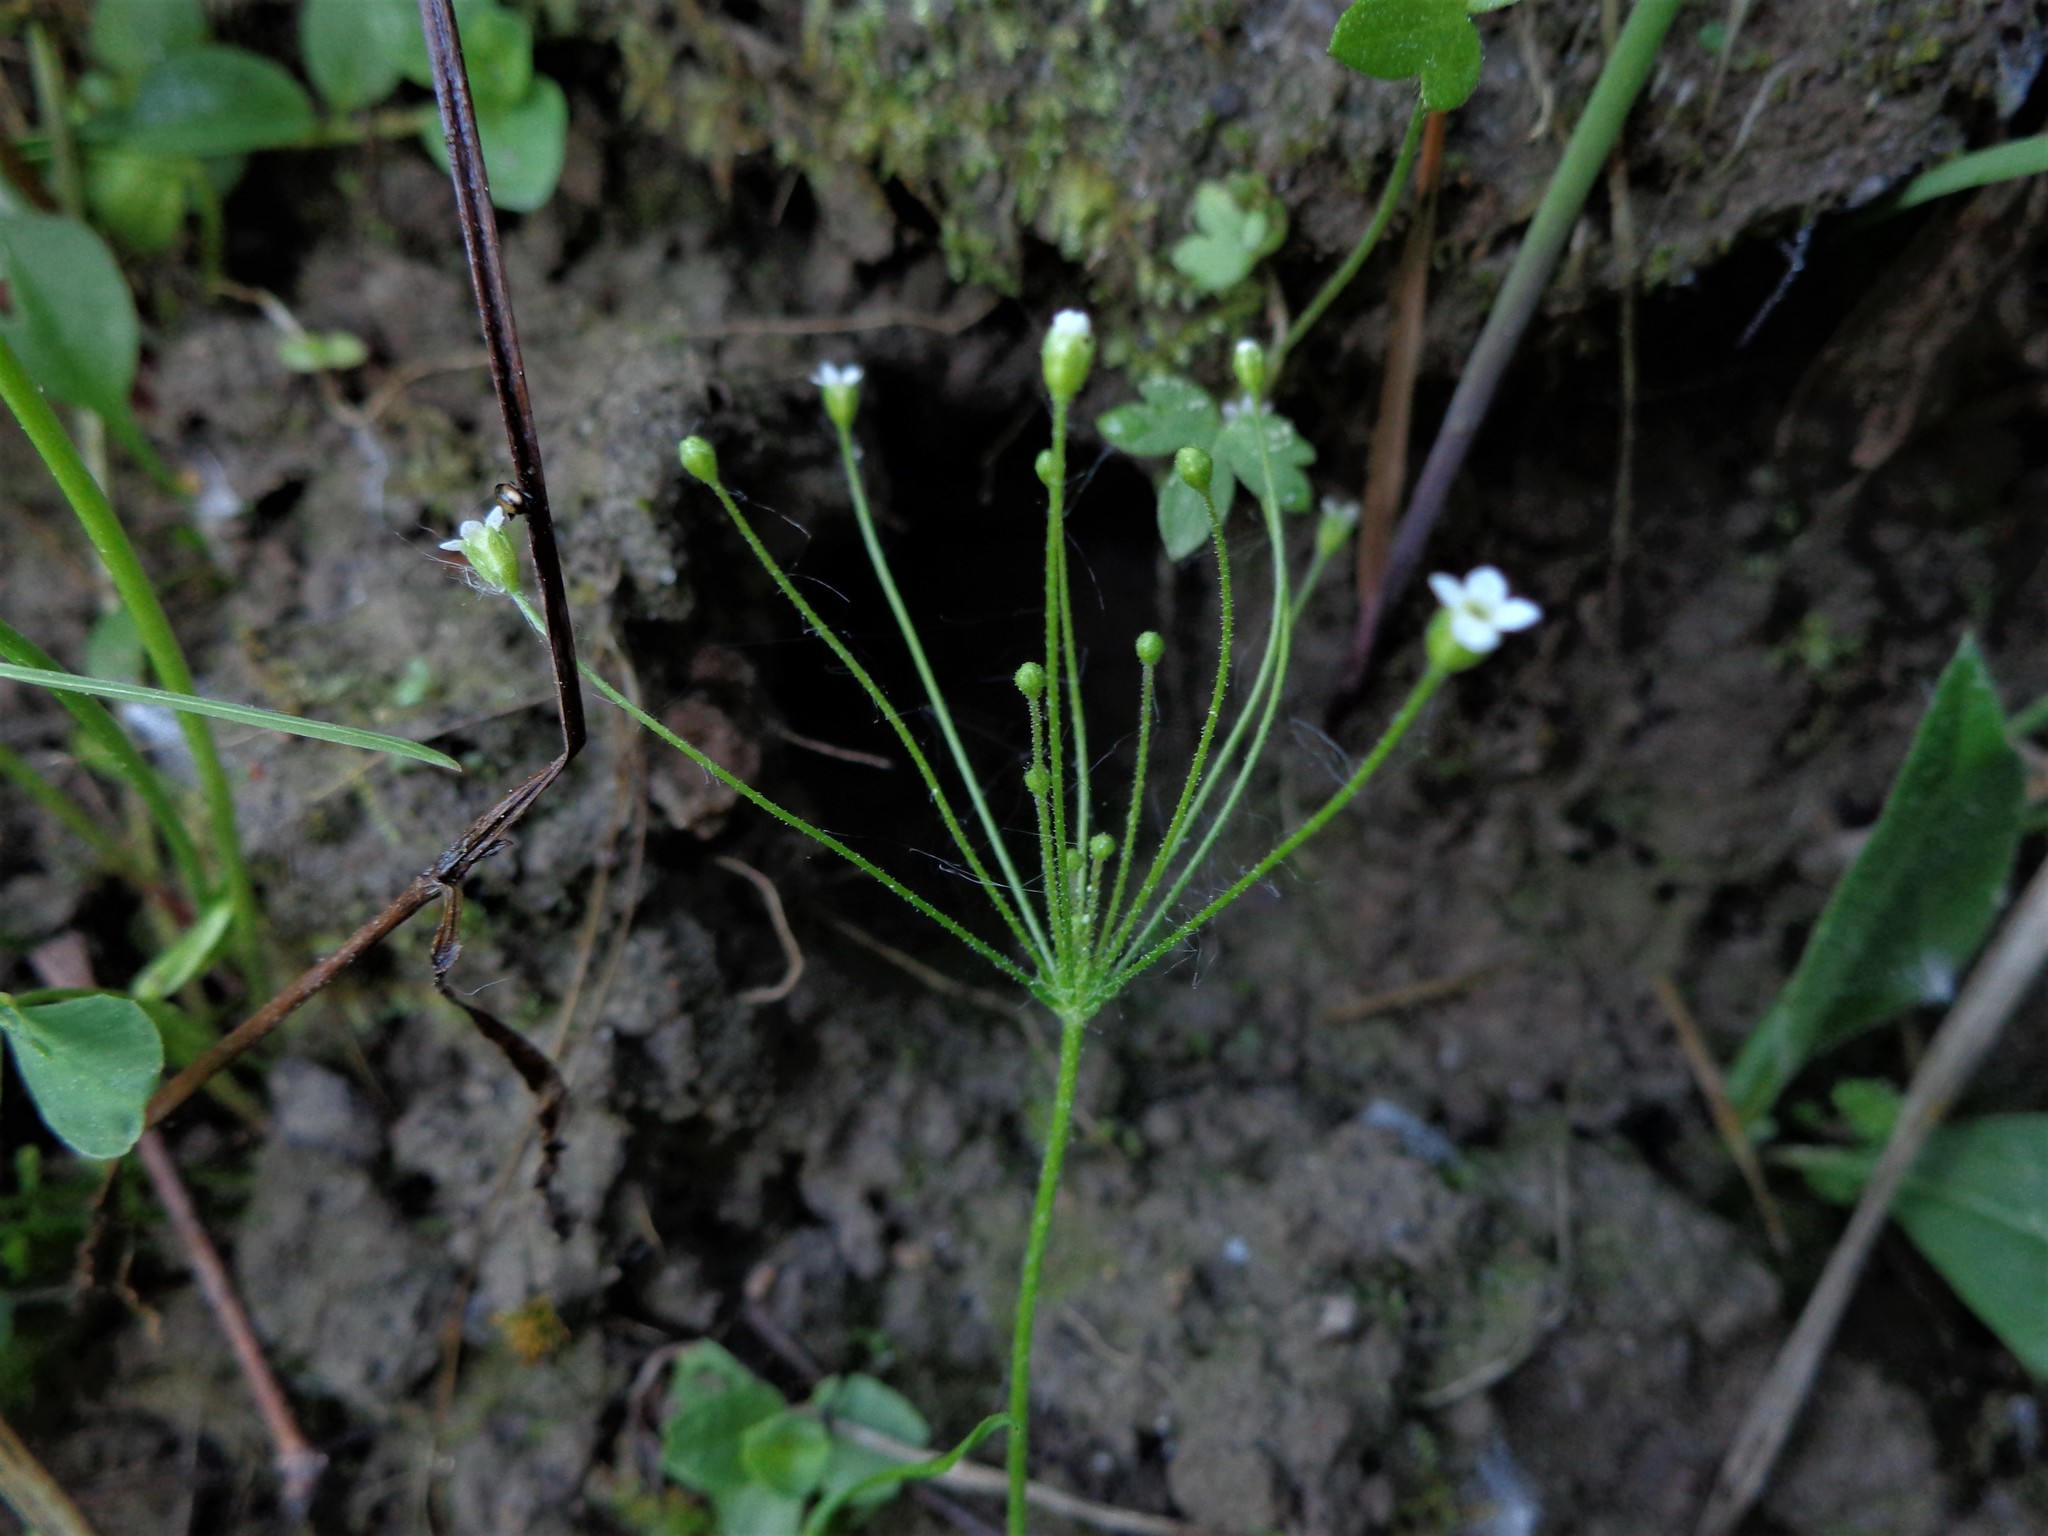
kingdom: Plantae
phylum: Tracheophyta
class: Magnoliopsida
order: Ericales
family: Primulaceae
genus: Androsace
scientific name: Androsace filiformis
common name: Filiform rock jasmine
